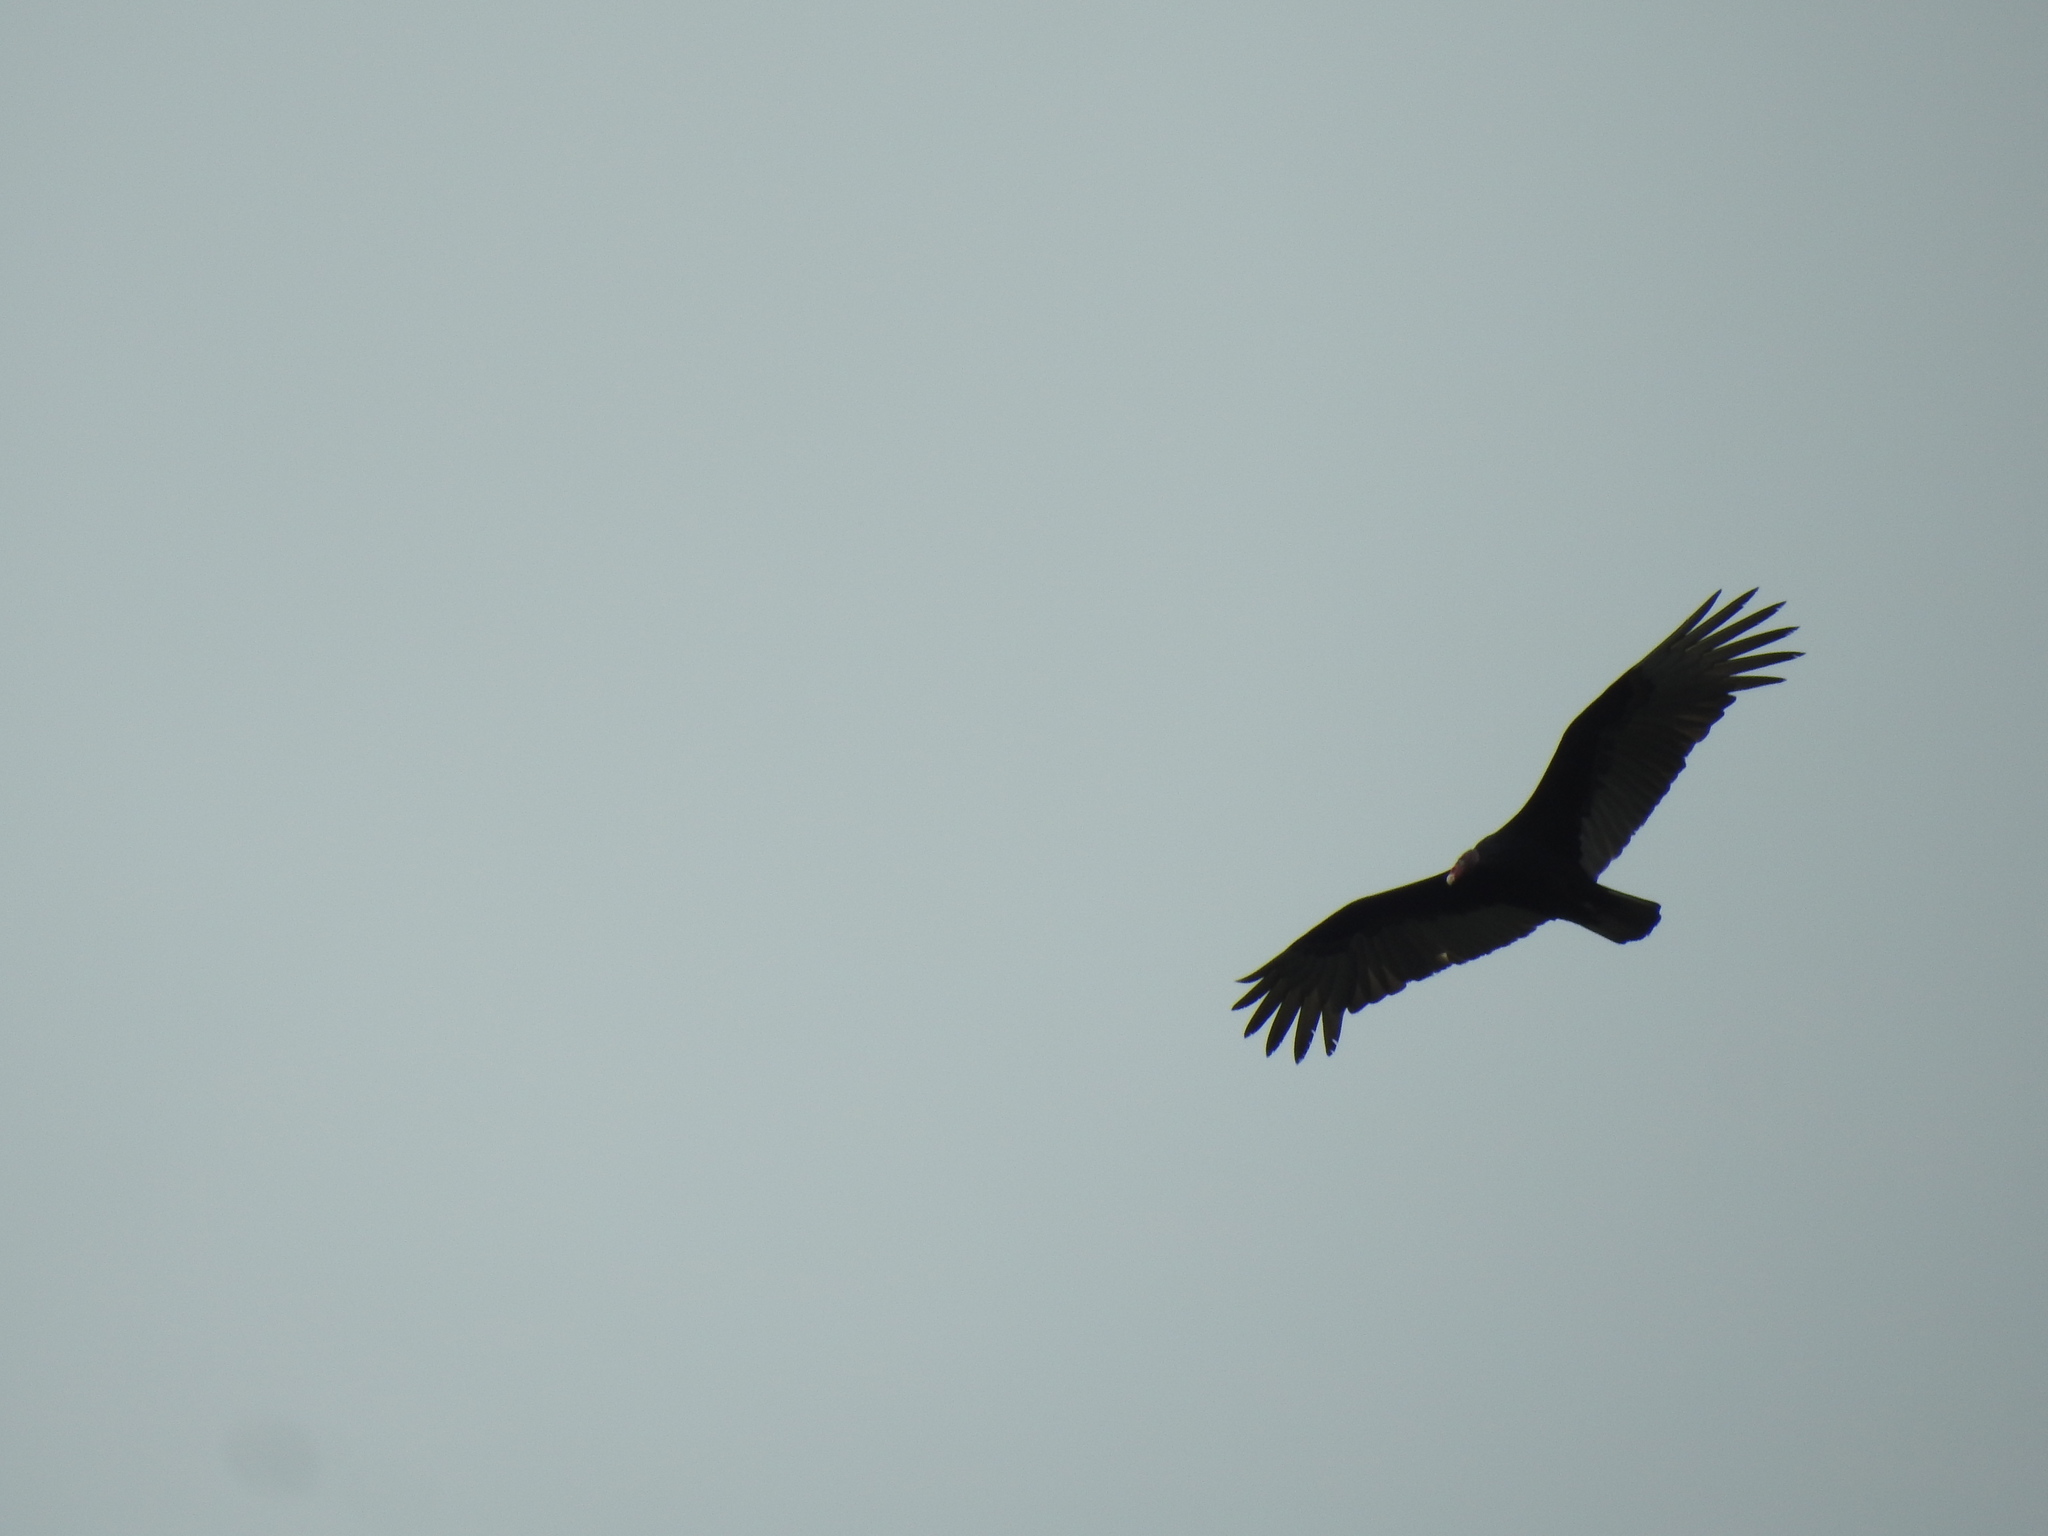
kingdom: Animalia
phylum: Chordata
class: Aves
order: Accipitriformes
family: Cathartidae
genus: Cathartes
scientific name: Cathartes aura
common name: Turkey vulture
